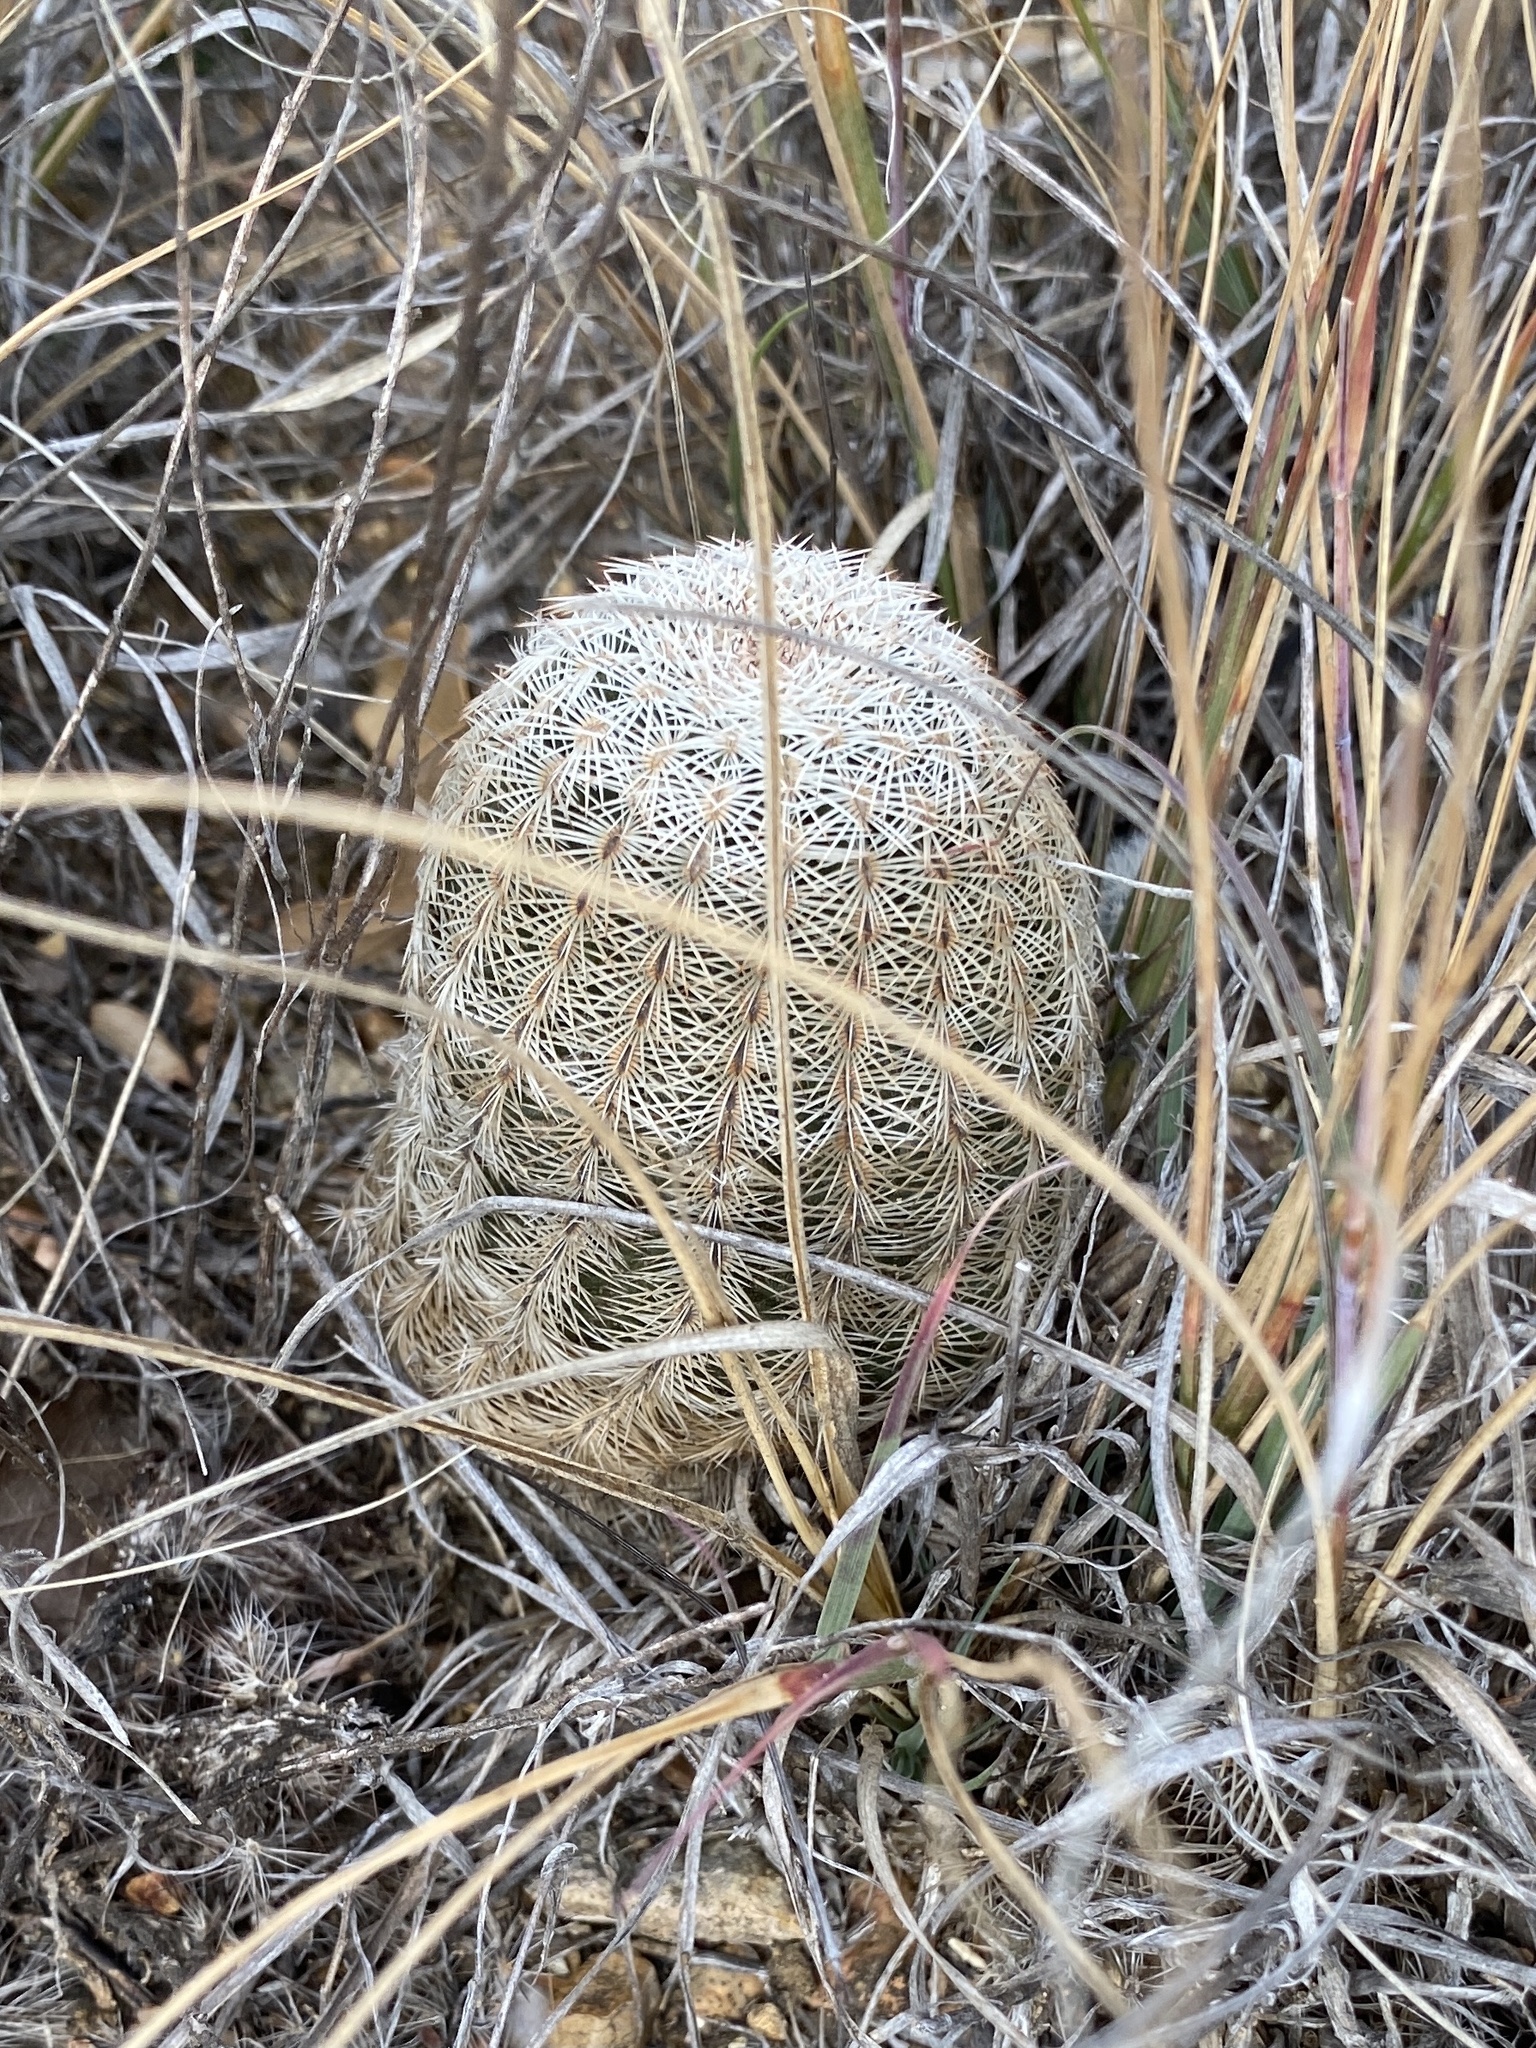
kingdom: Plantae
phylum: Tracheophyta
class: Magnoliopsida
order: Caryophyllales
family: Cactaceae
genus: Echinocereus
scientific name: Echinocereus reichenbachii
